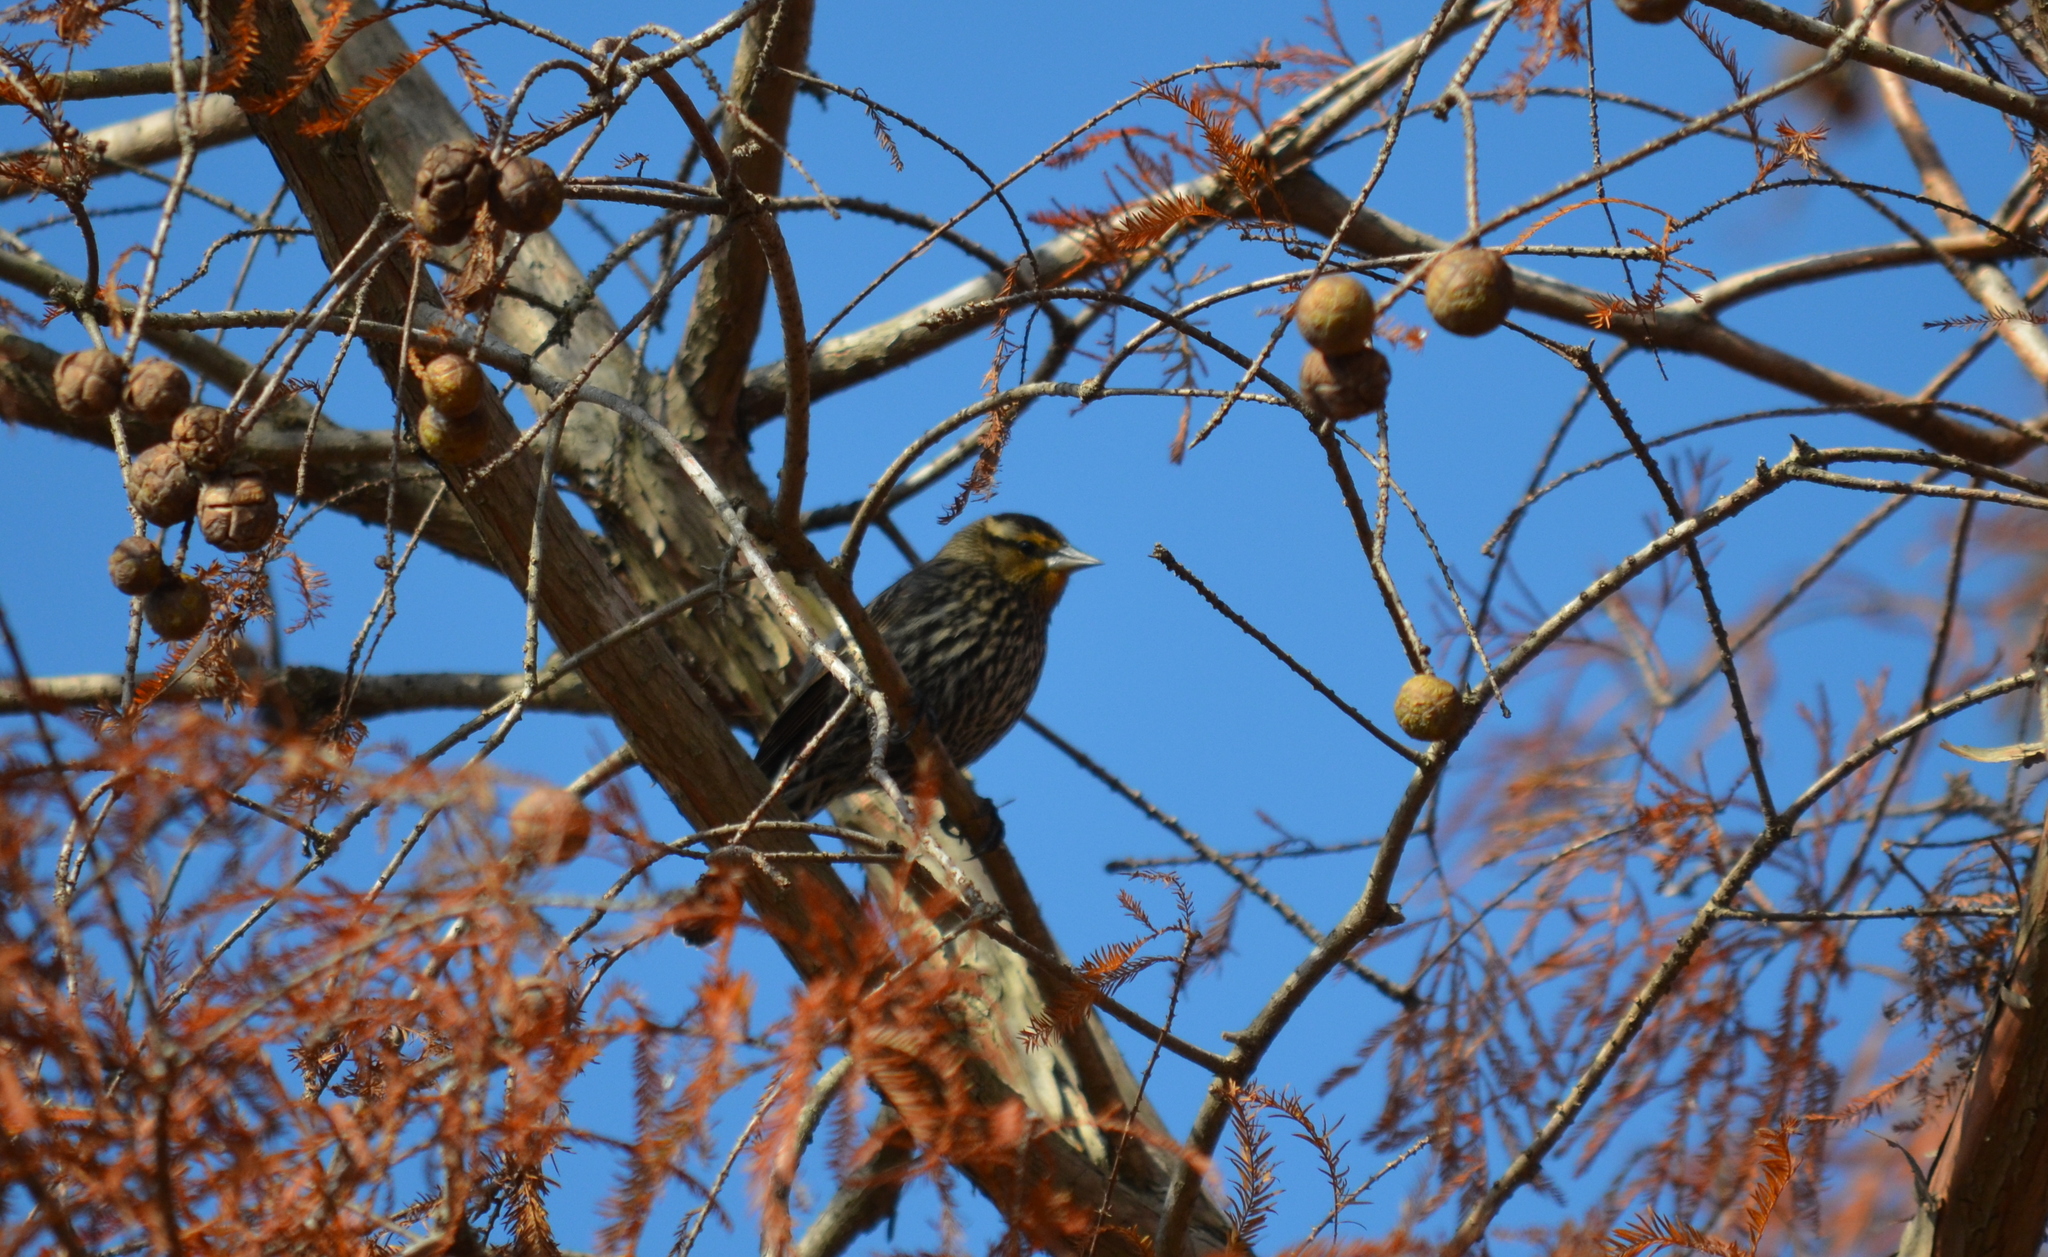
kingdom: Animalia
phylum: Chordata
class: Aves
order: Passeriformes
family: Icteridae
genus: Agelaius
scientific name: Agelaius phoeniceus
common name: Red-winged blackbird
